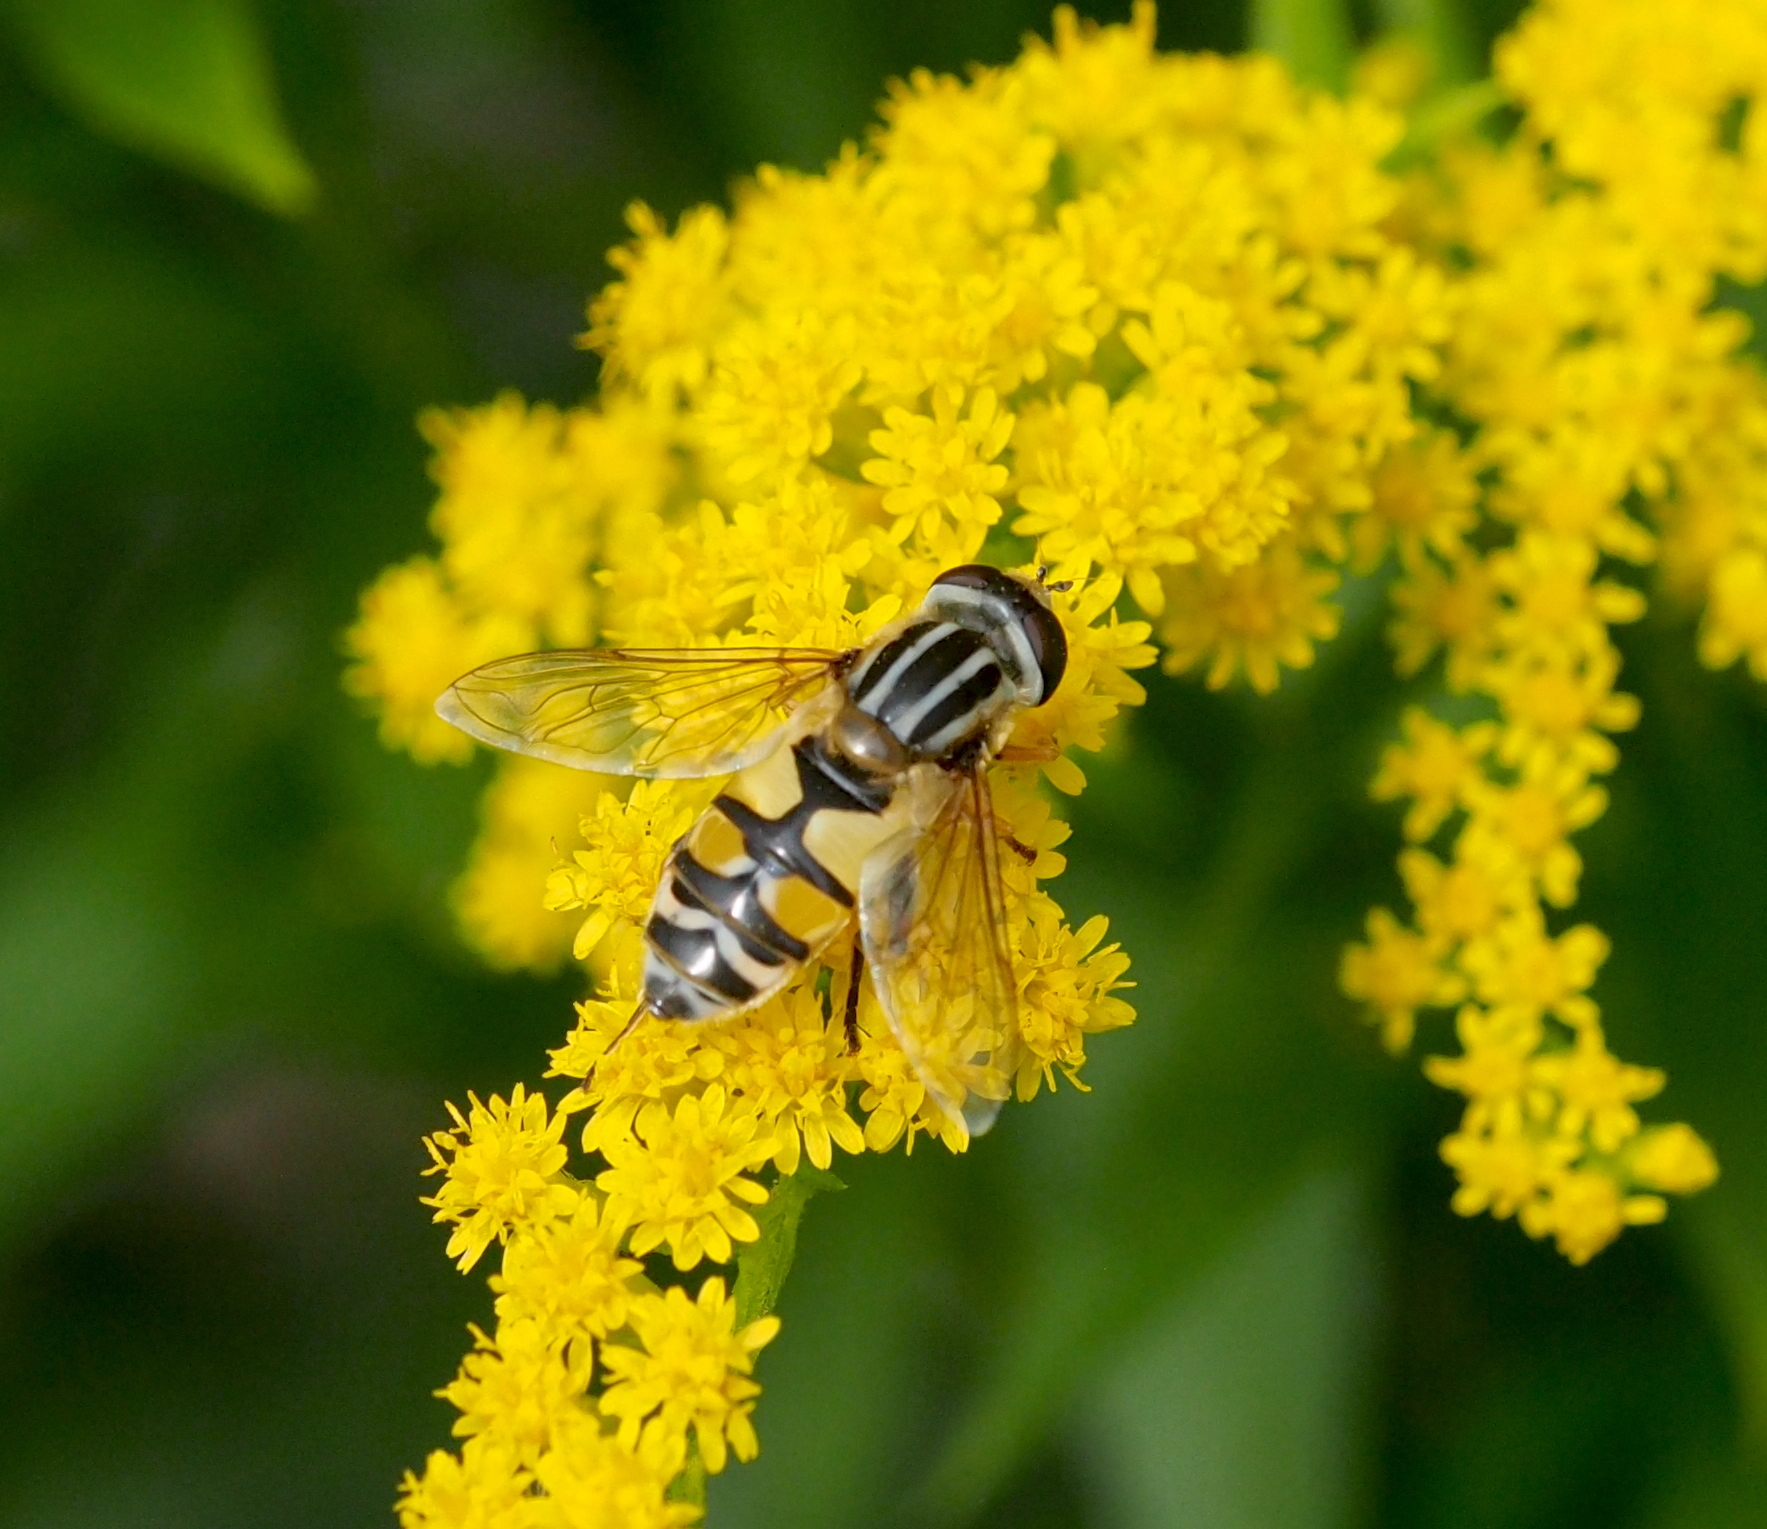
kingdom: Animalia
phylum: Arthropoda
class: Insecta
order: Diptera
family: Syrphidae
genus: Helophilus
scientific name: Helophilus trivittatus
